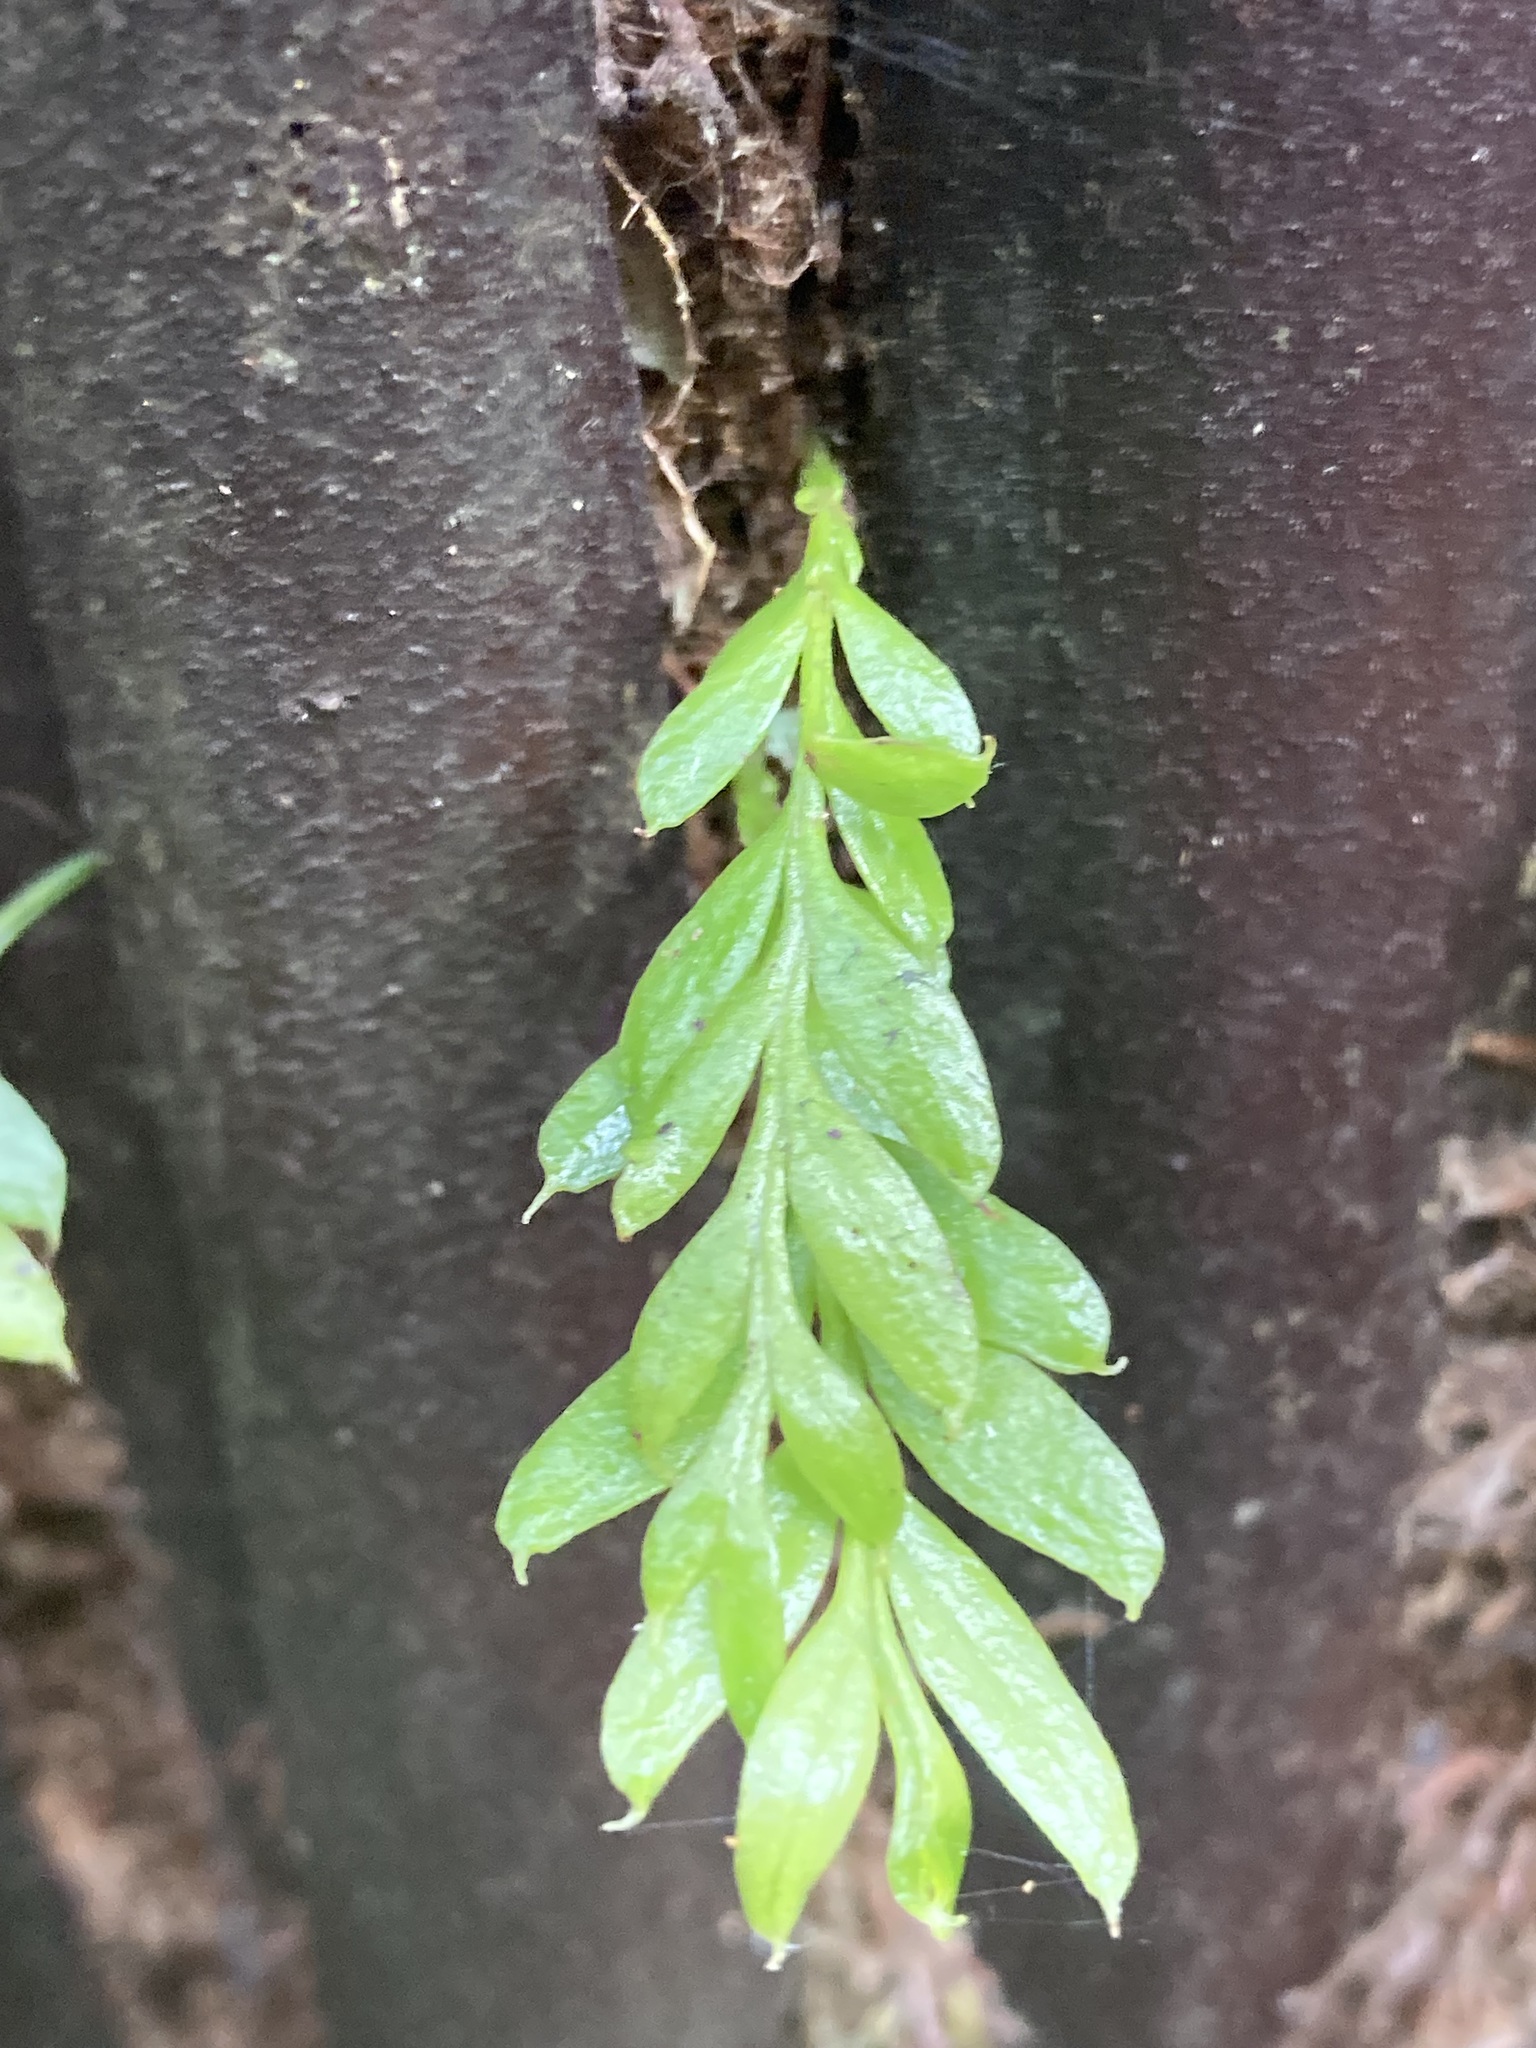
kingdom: Plantae
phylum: Tracheophyta
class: Polypodiopsida
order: Psilotales
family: Psilotaceae
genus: Tmesipteris
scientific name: Tmesipteris lanceolata
